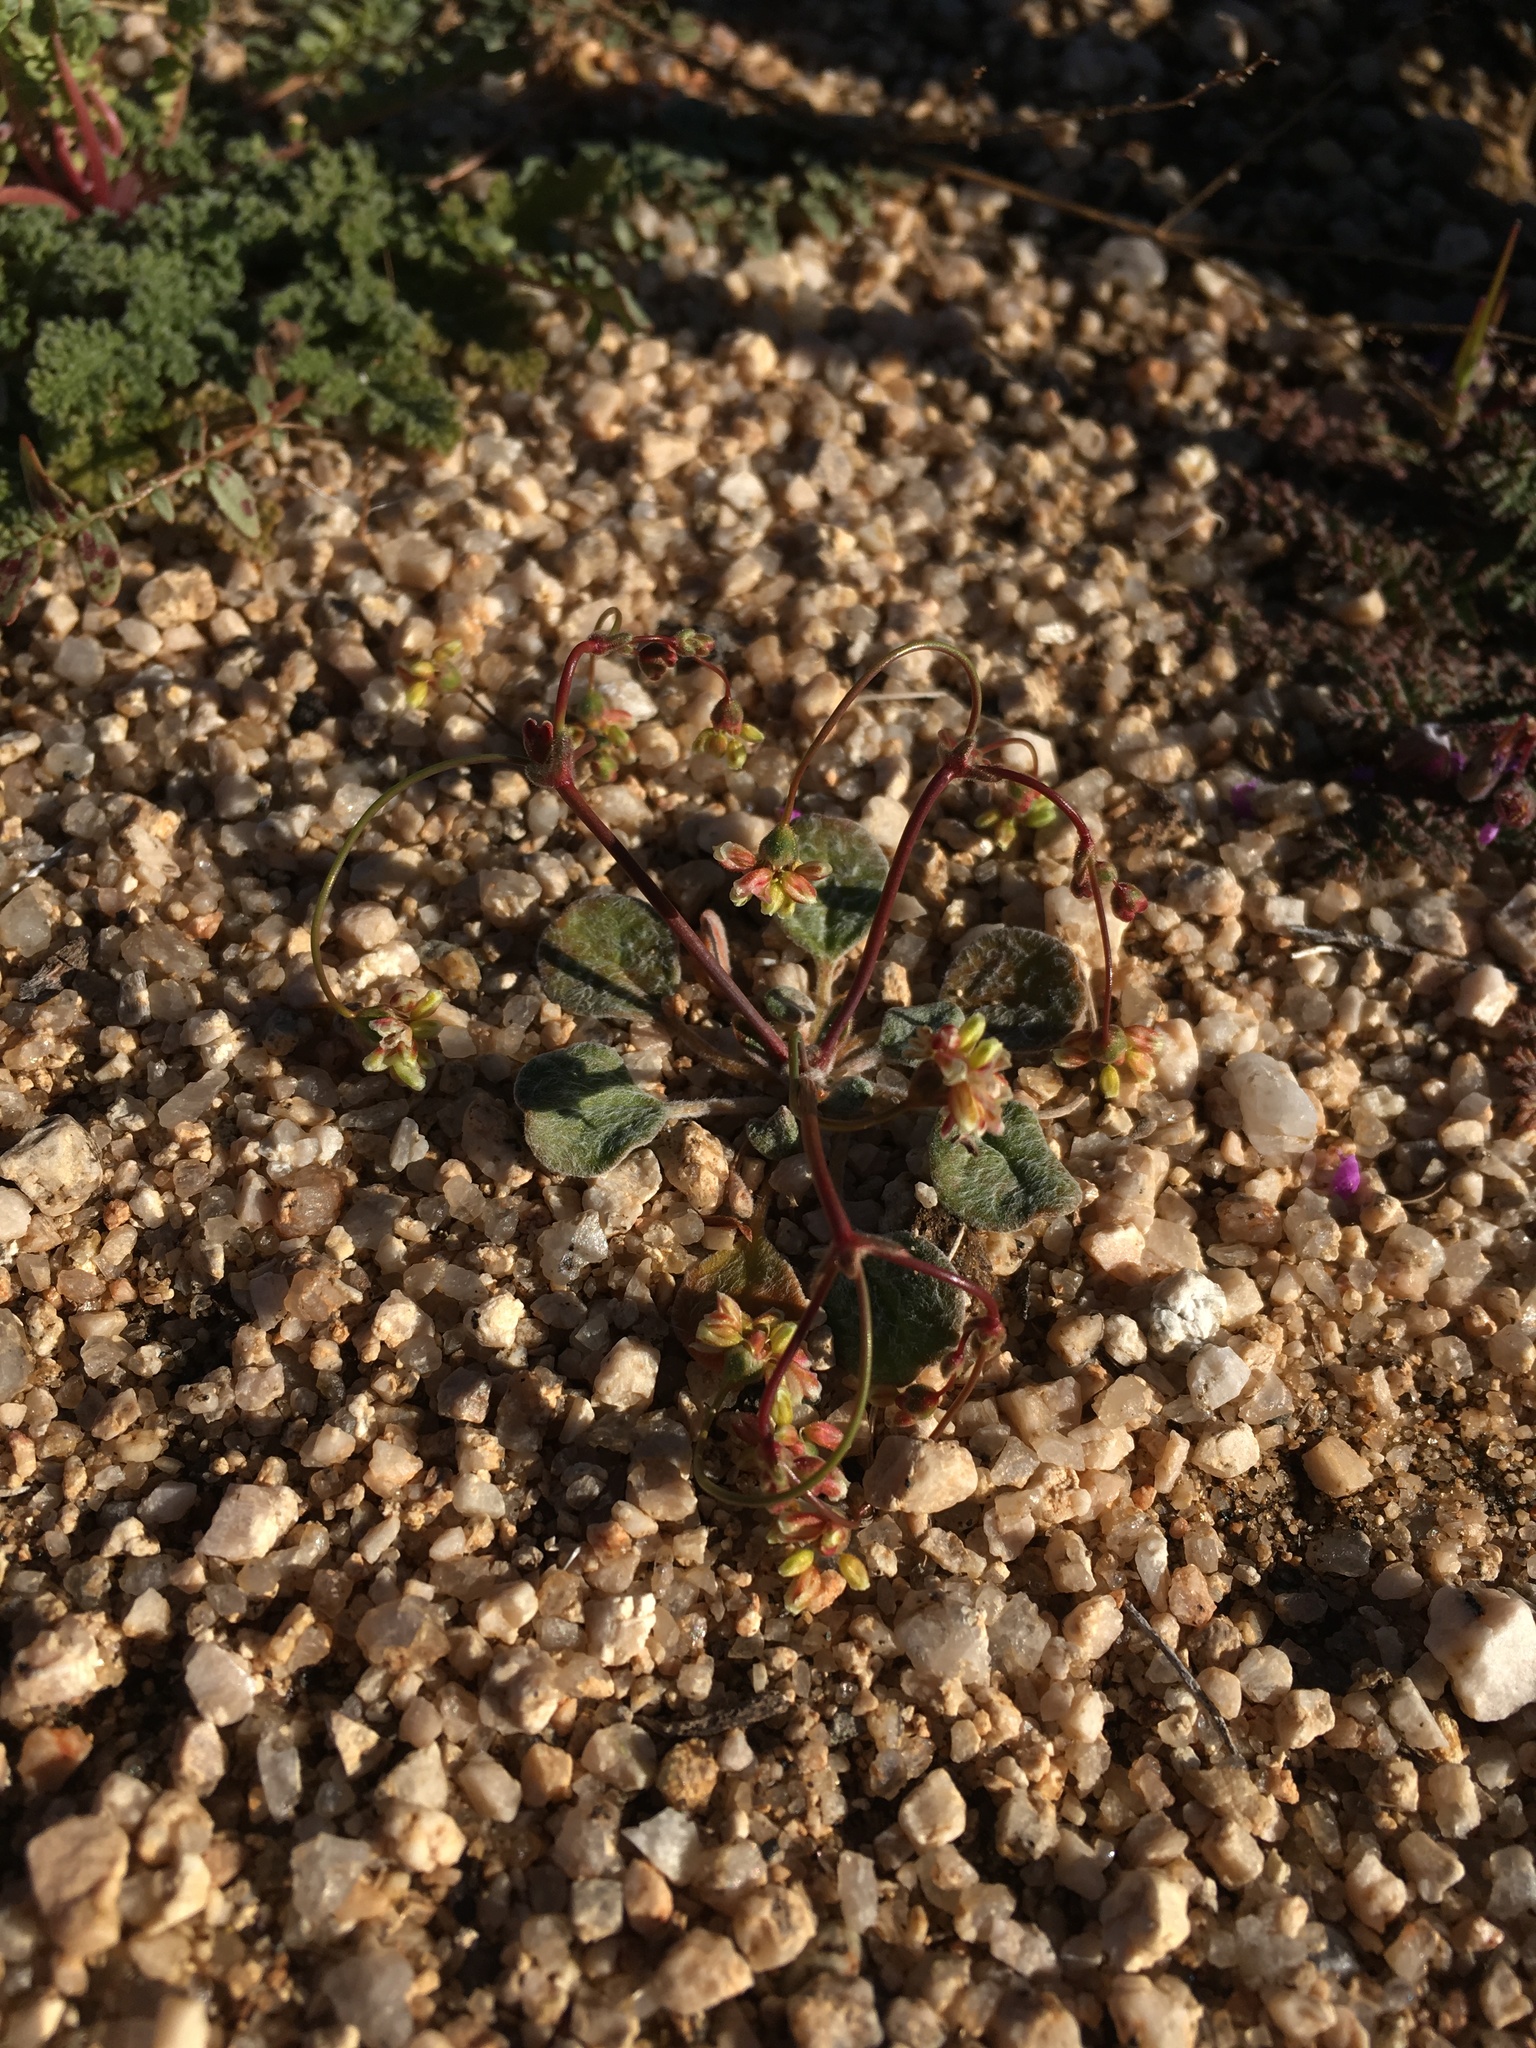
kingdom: Plantae
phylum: Tracheophyta
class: Magnoliopsida
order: Caryophyllales
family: Polygonaceae
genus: Eriogonum
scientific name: Eriogonum pusillum
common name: Yellow turbans
